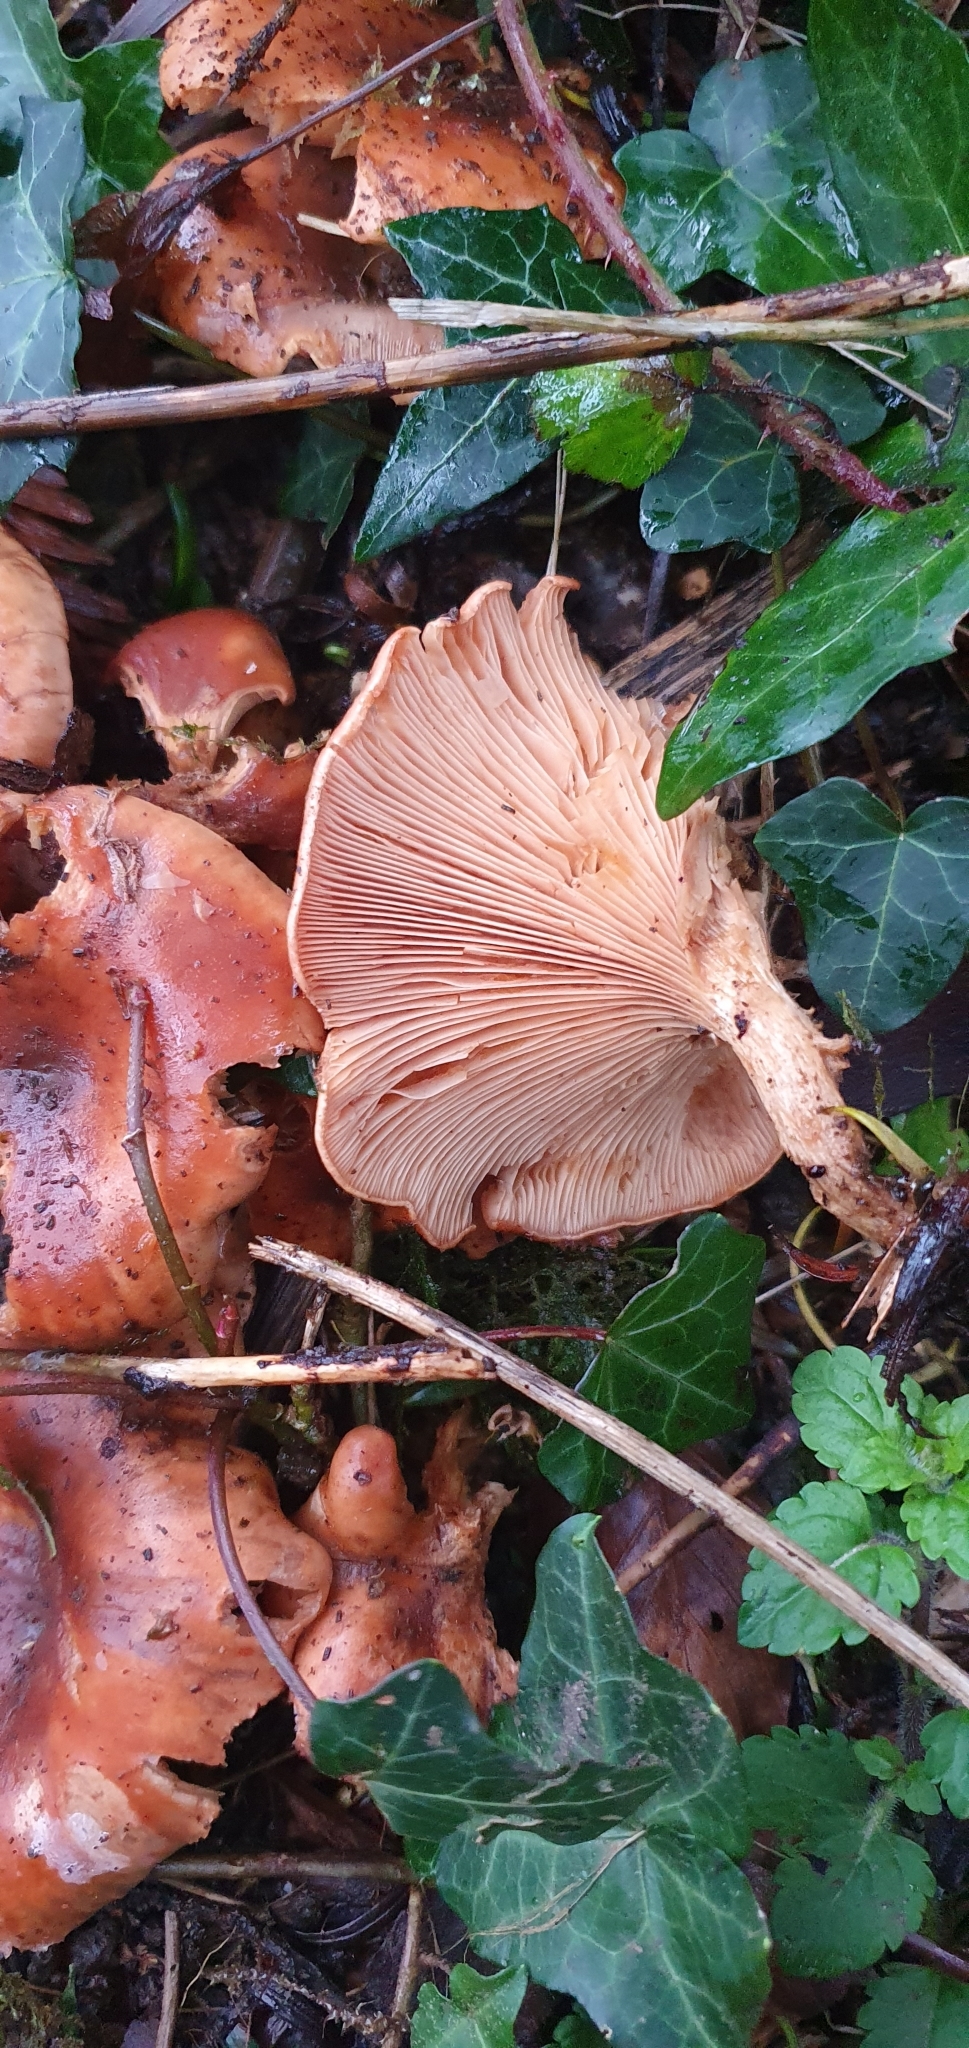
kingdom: Fungi
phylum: Basidiomycota
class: Agaricomycetes
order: Agaricales
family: Tricholomataceae
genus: Paralepista
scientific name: Paralepista flaccida
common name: Tawny funnel cap
